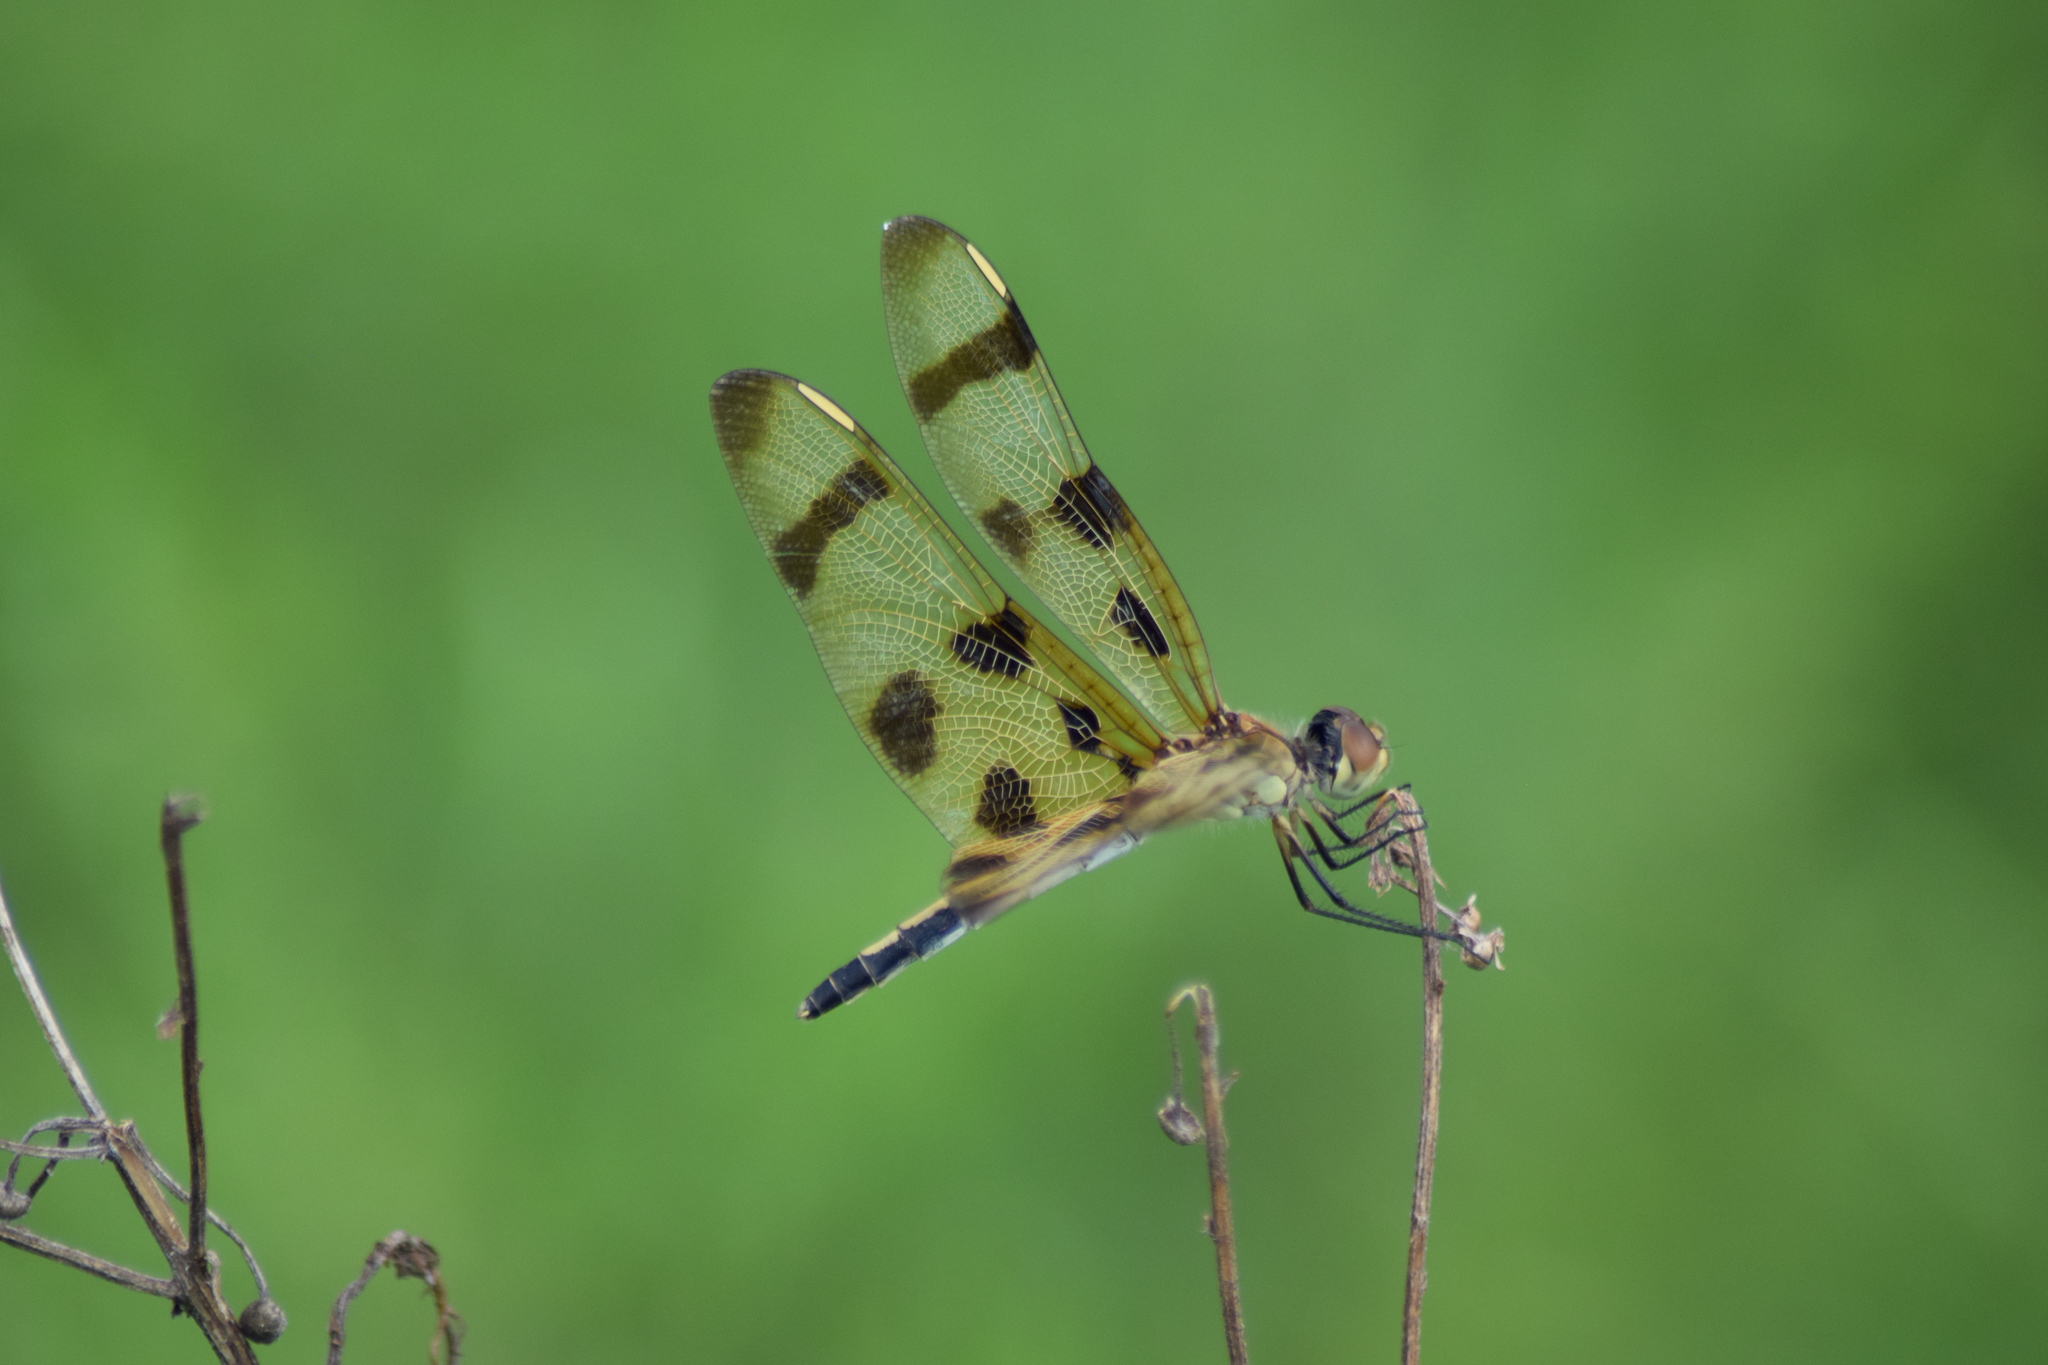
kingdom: Animalia
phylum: Arthropoda
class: Insecta
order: Odonata
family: Libellulidae
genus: Celithemis
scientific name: Celithemis eponina
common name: Halloween pennant
